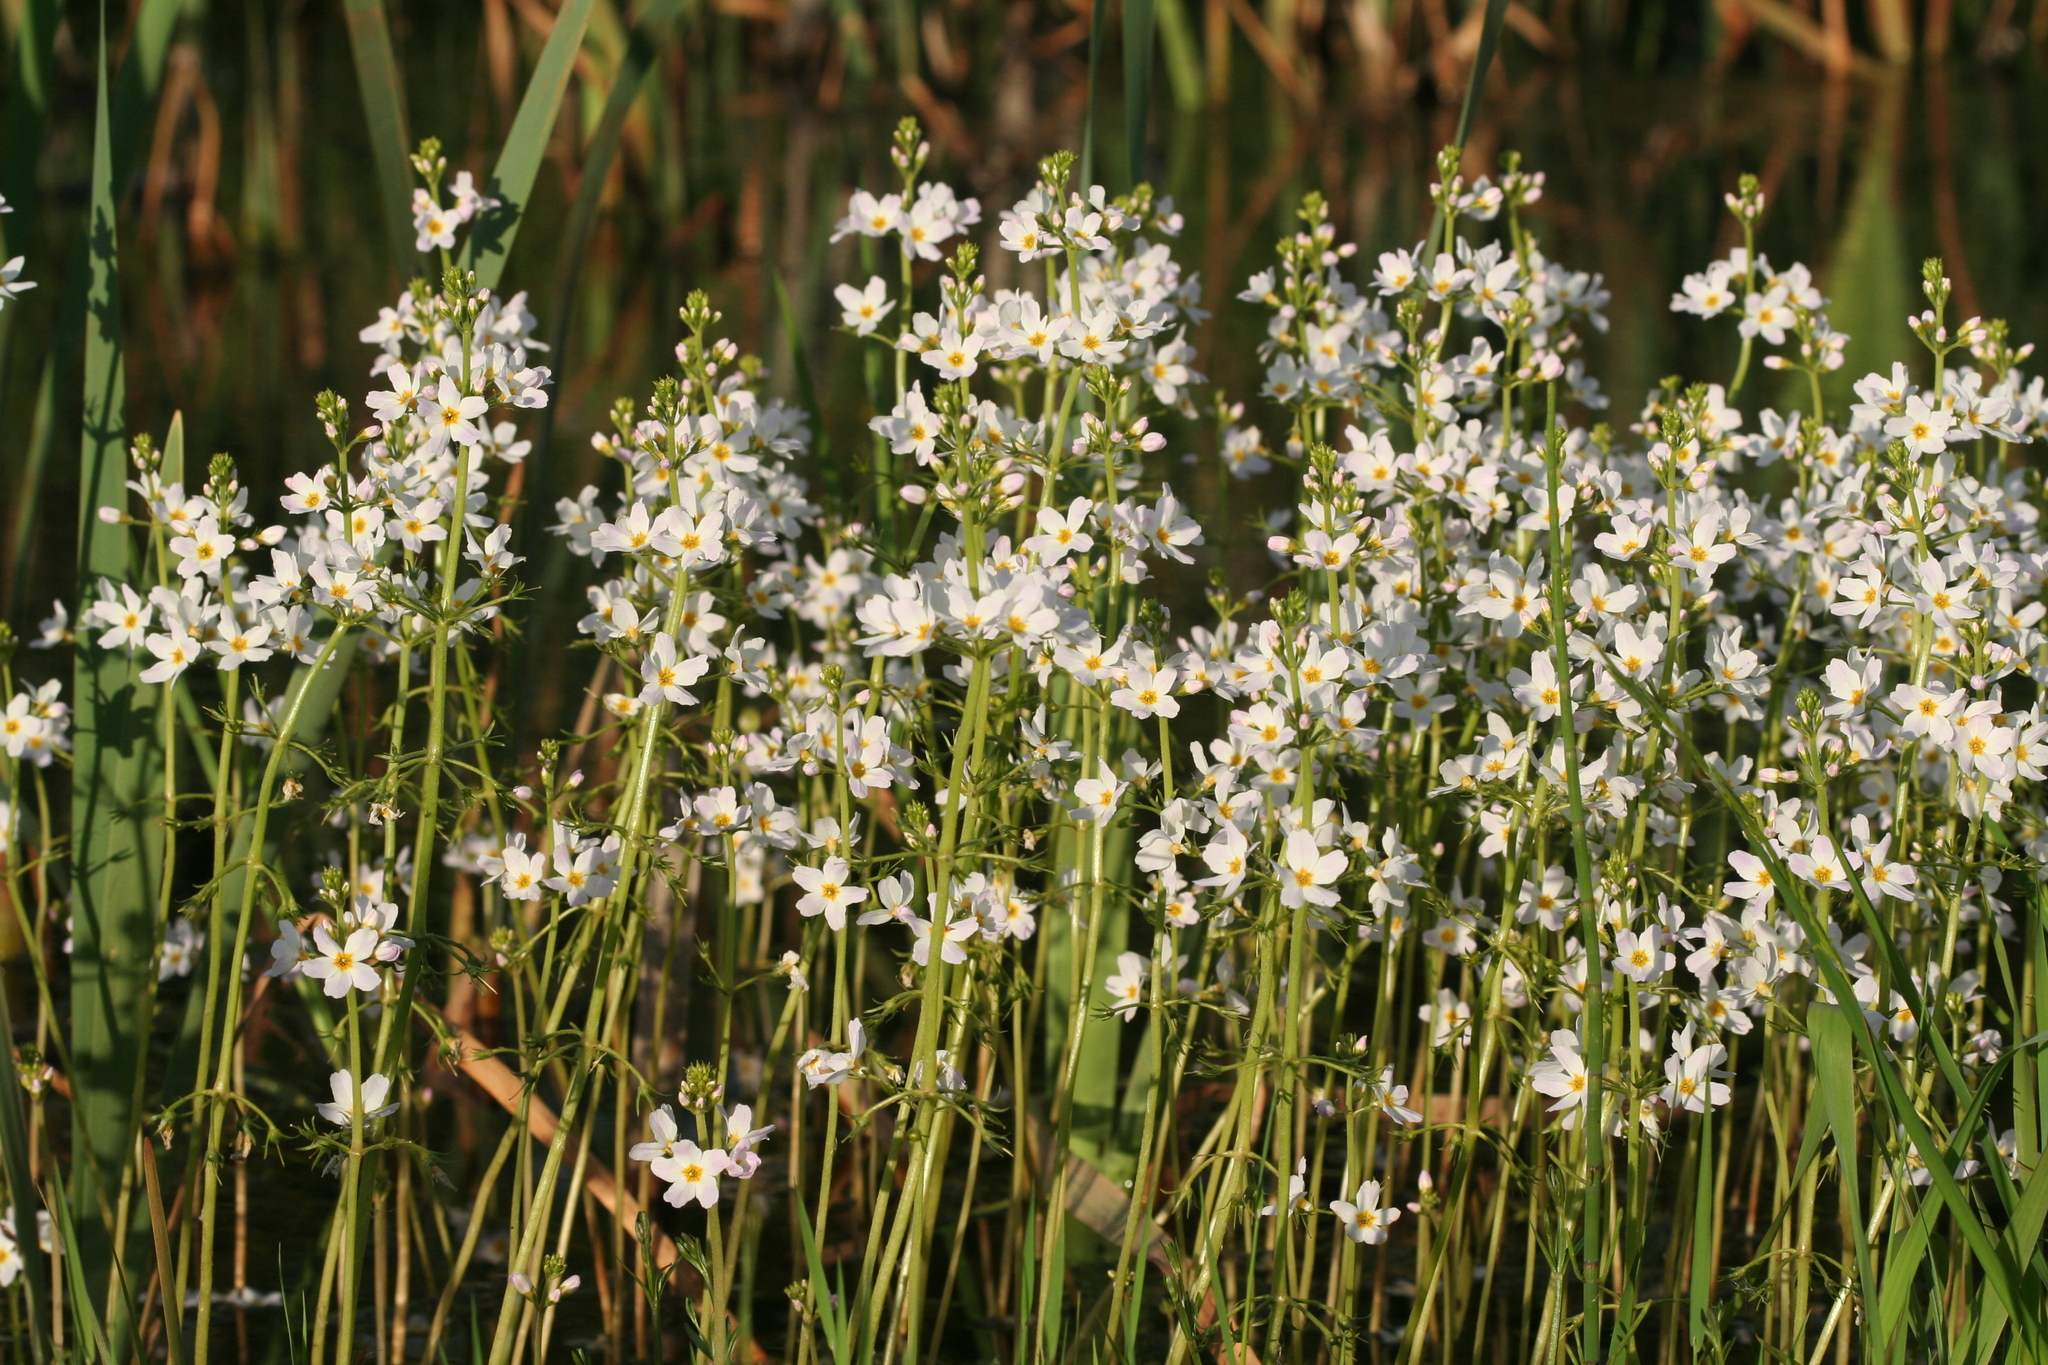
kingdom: Plantae
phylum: Tracheophyta
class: Magnoliopsida
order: Ericales
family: Primulaceae
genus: Hottonia
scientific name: Hottonia palustris
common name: Water-violet
